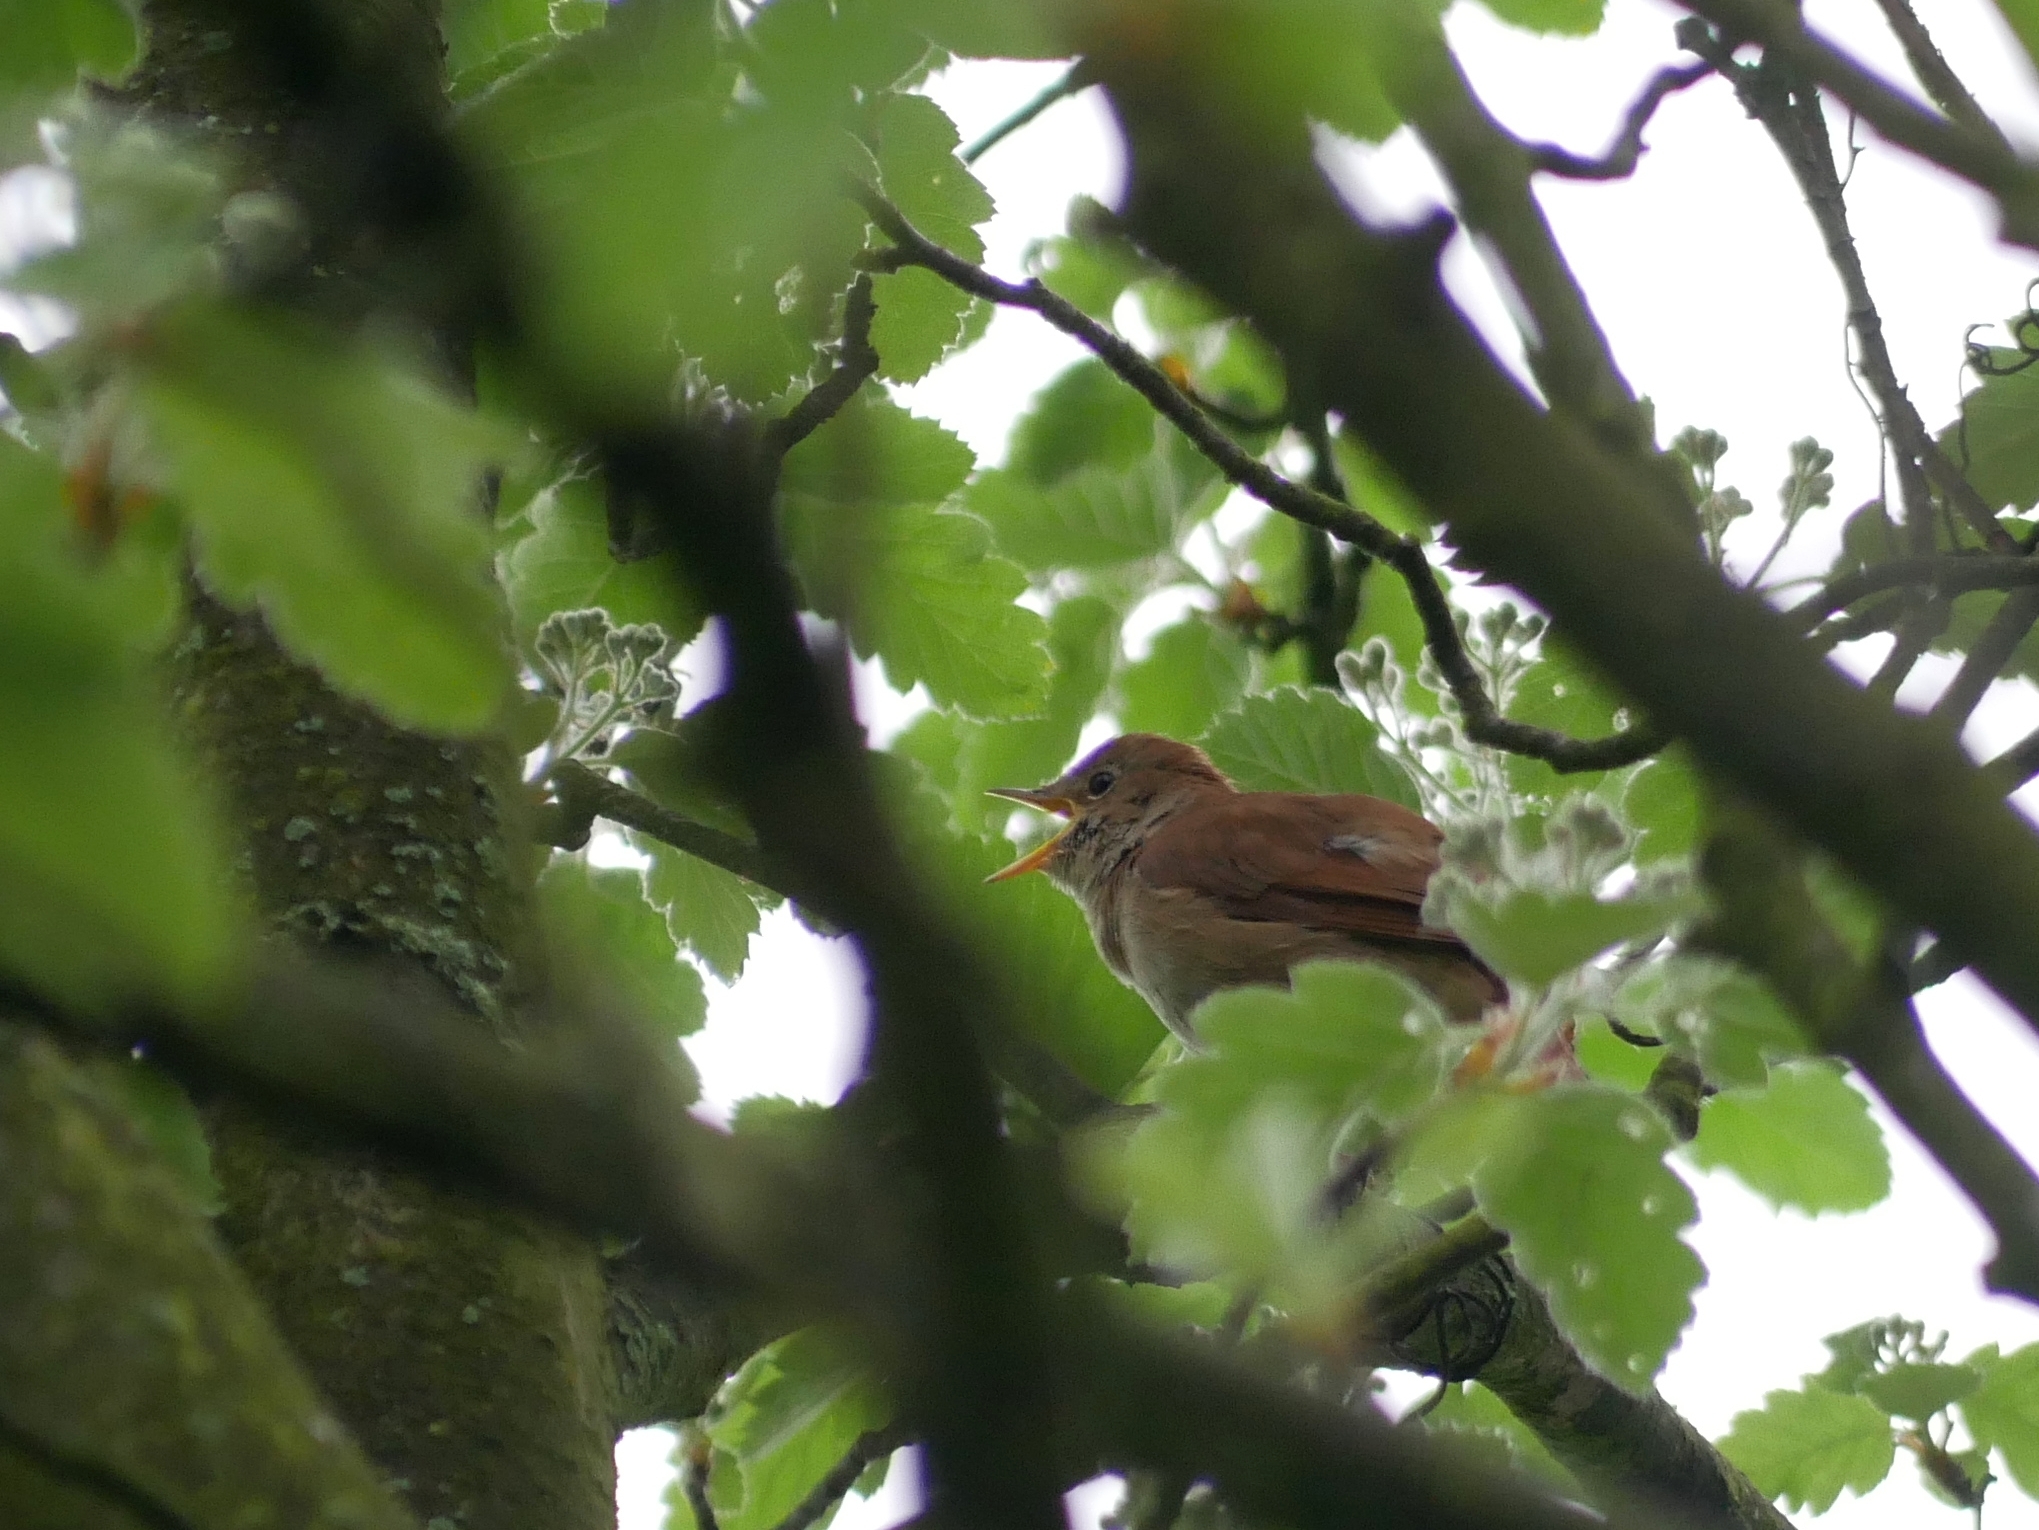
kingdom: Animalia
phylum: Chordata
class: Aves
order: Passeriformes
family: Muscicapidae
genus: Luscinia
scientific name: Luscinia megarhynchos
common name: Common nightingale
